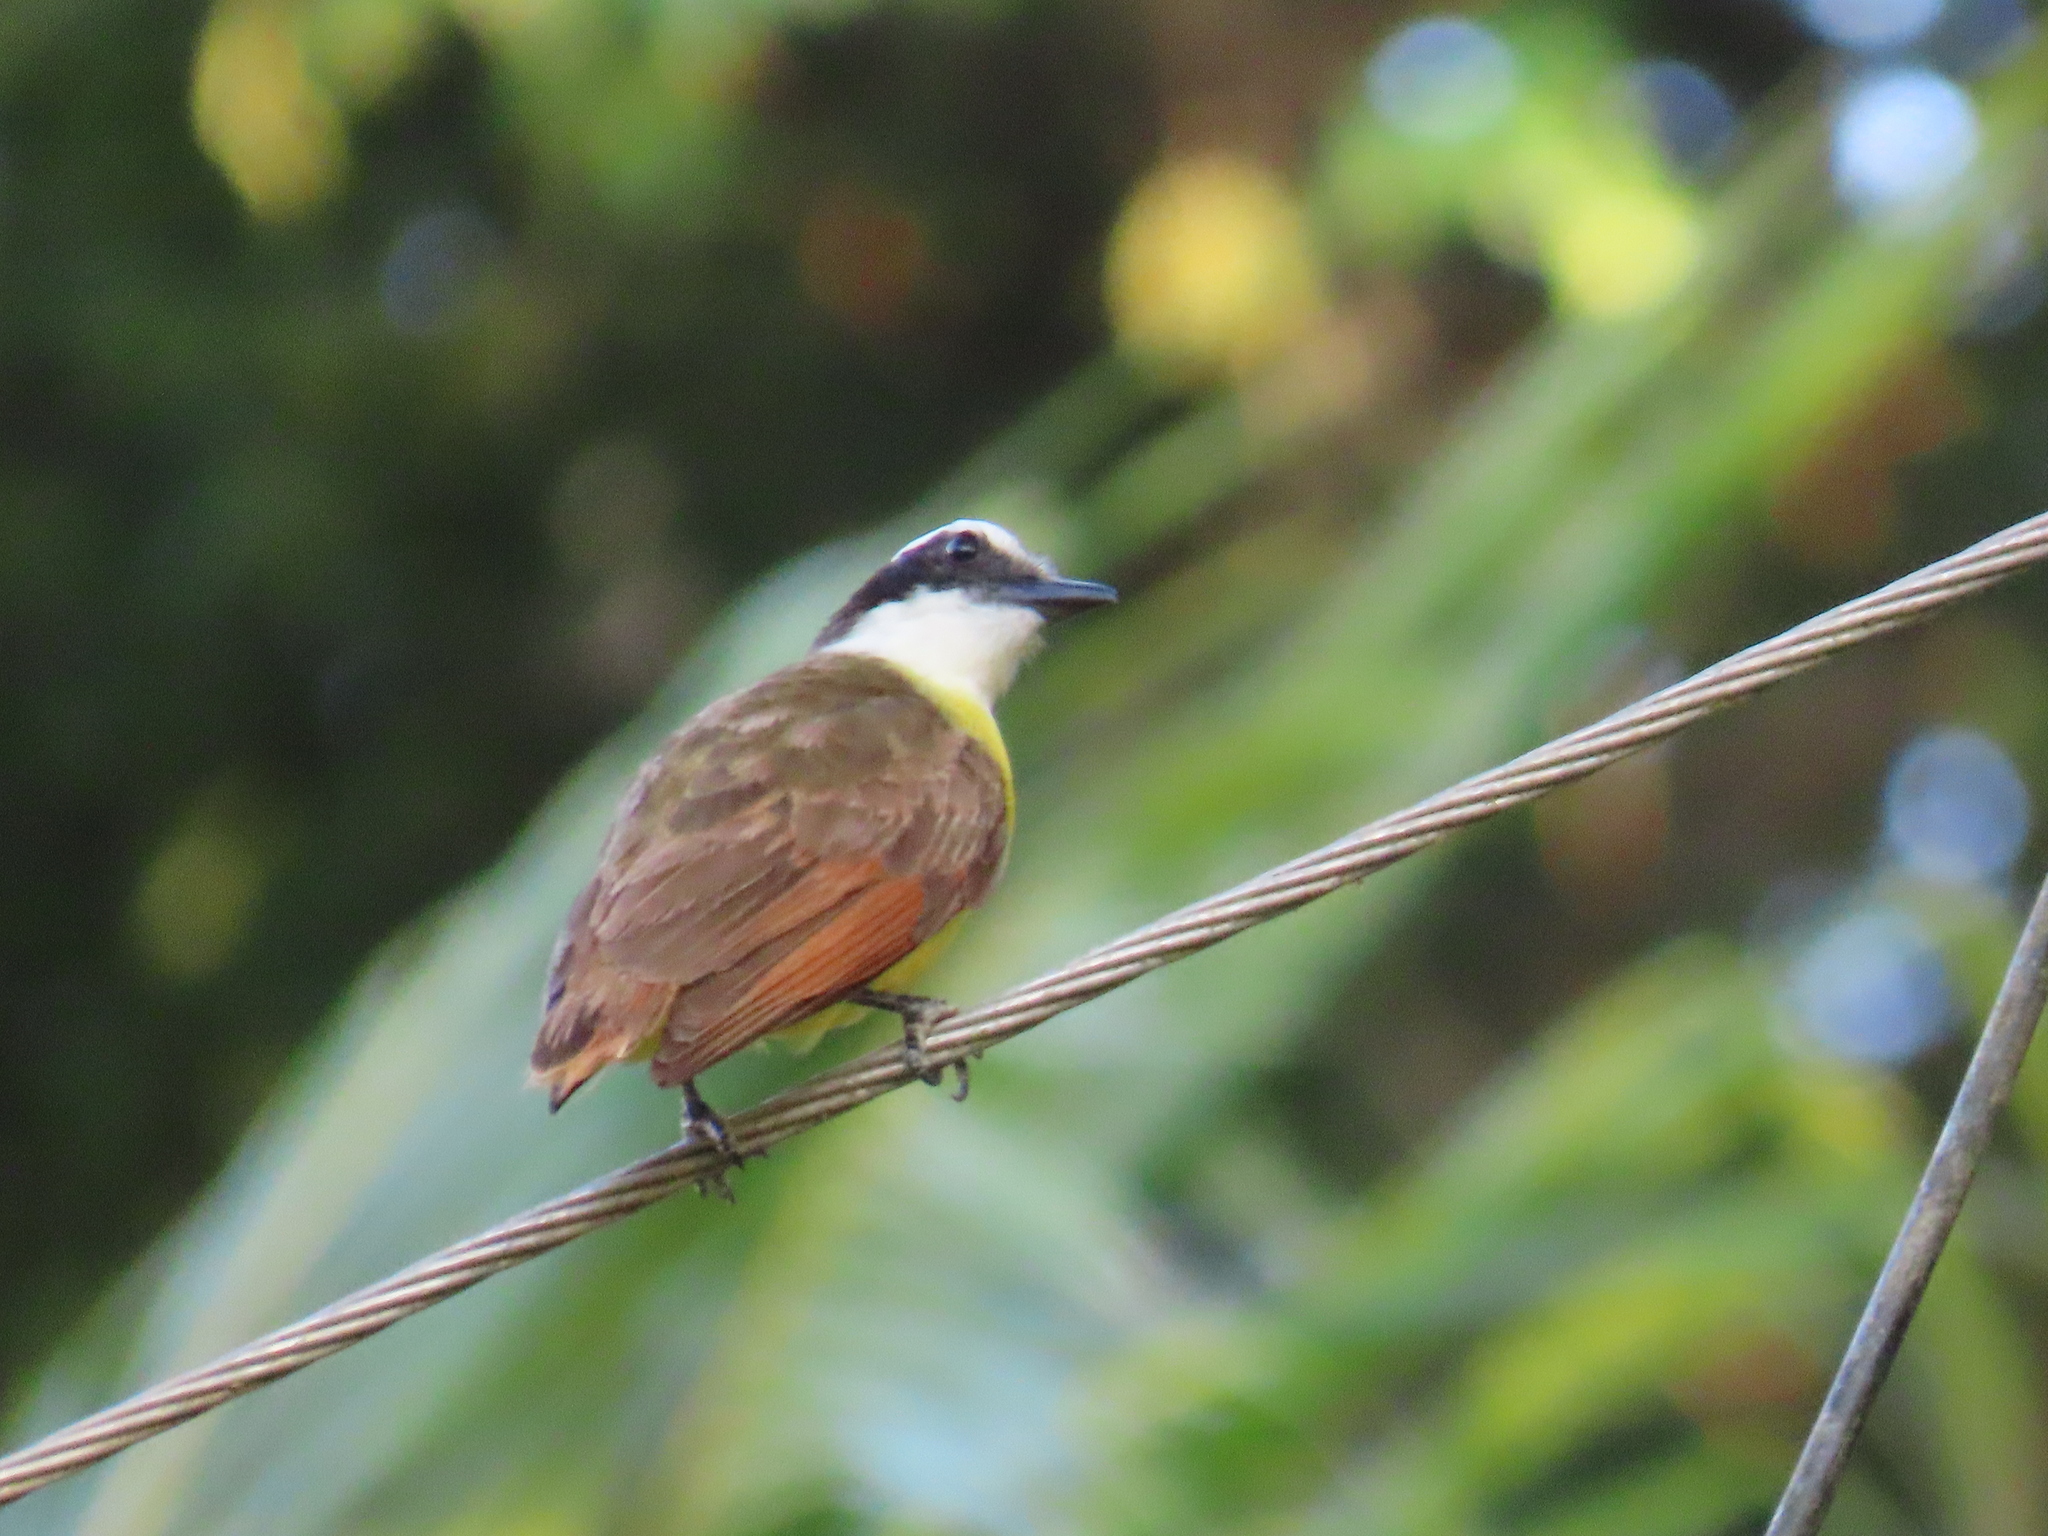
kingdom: Animalia
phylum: Chordata
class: Aves
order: Passeriformes
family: Tyrannidae
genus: Pitangus
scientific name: Pitangus sulphuratus
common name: Great kiskadee
